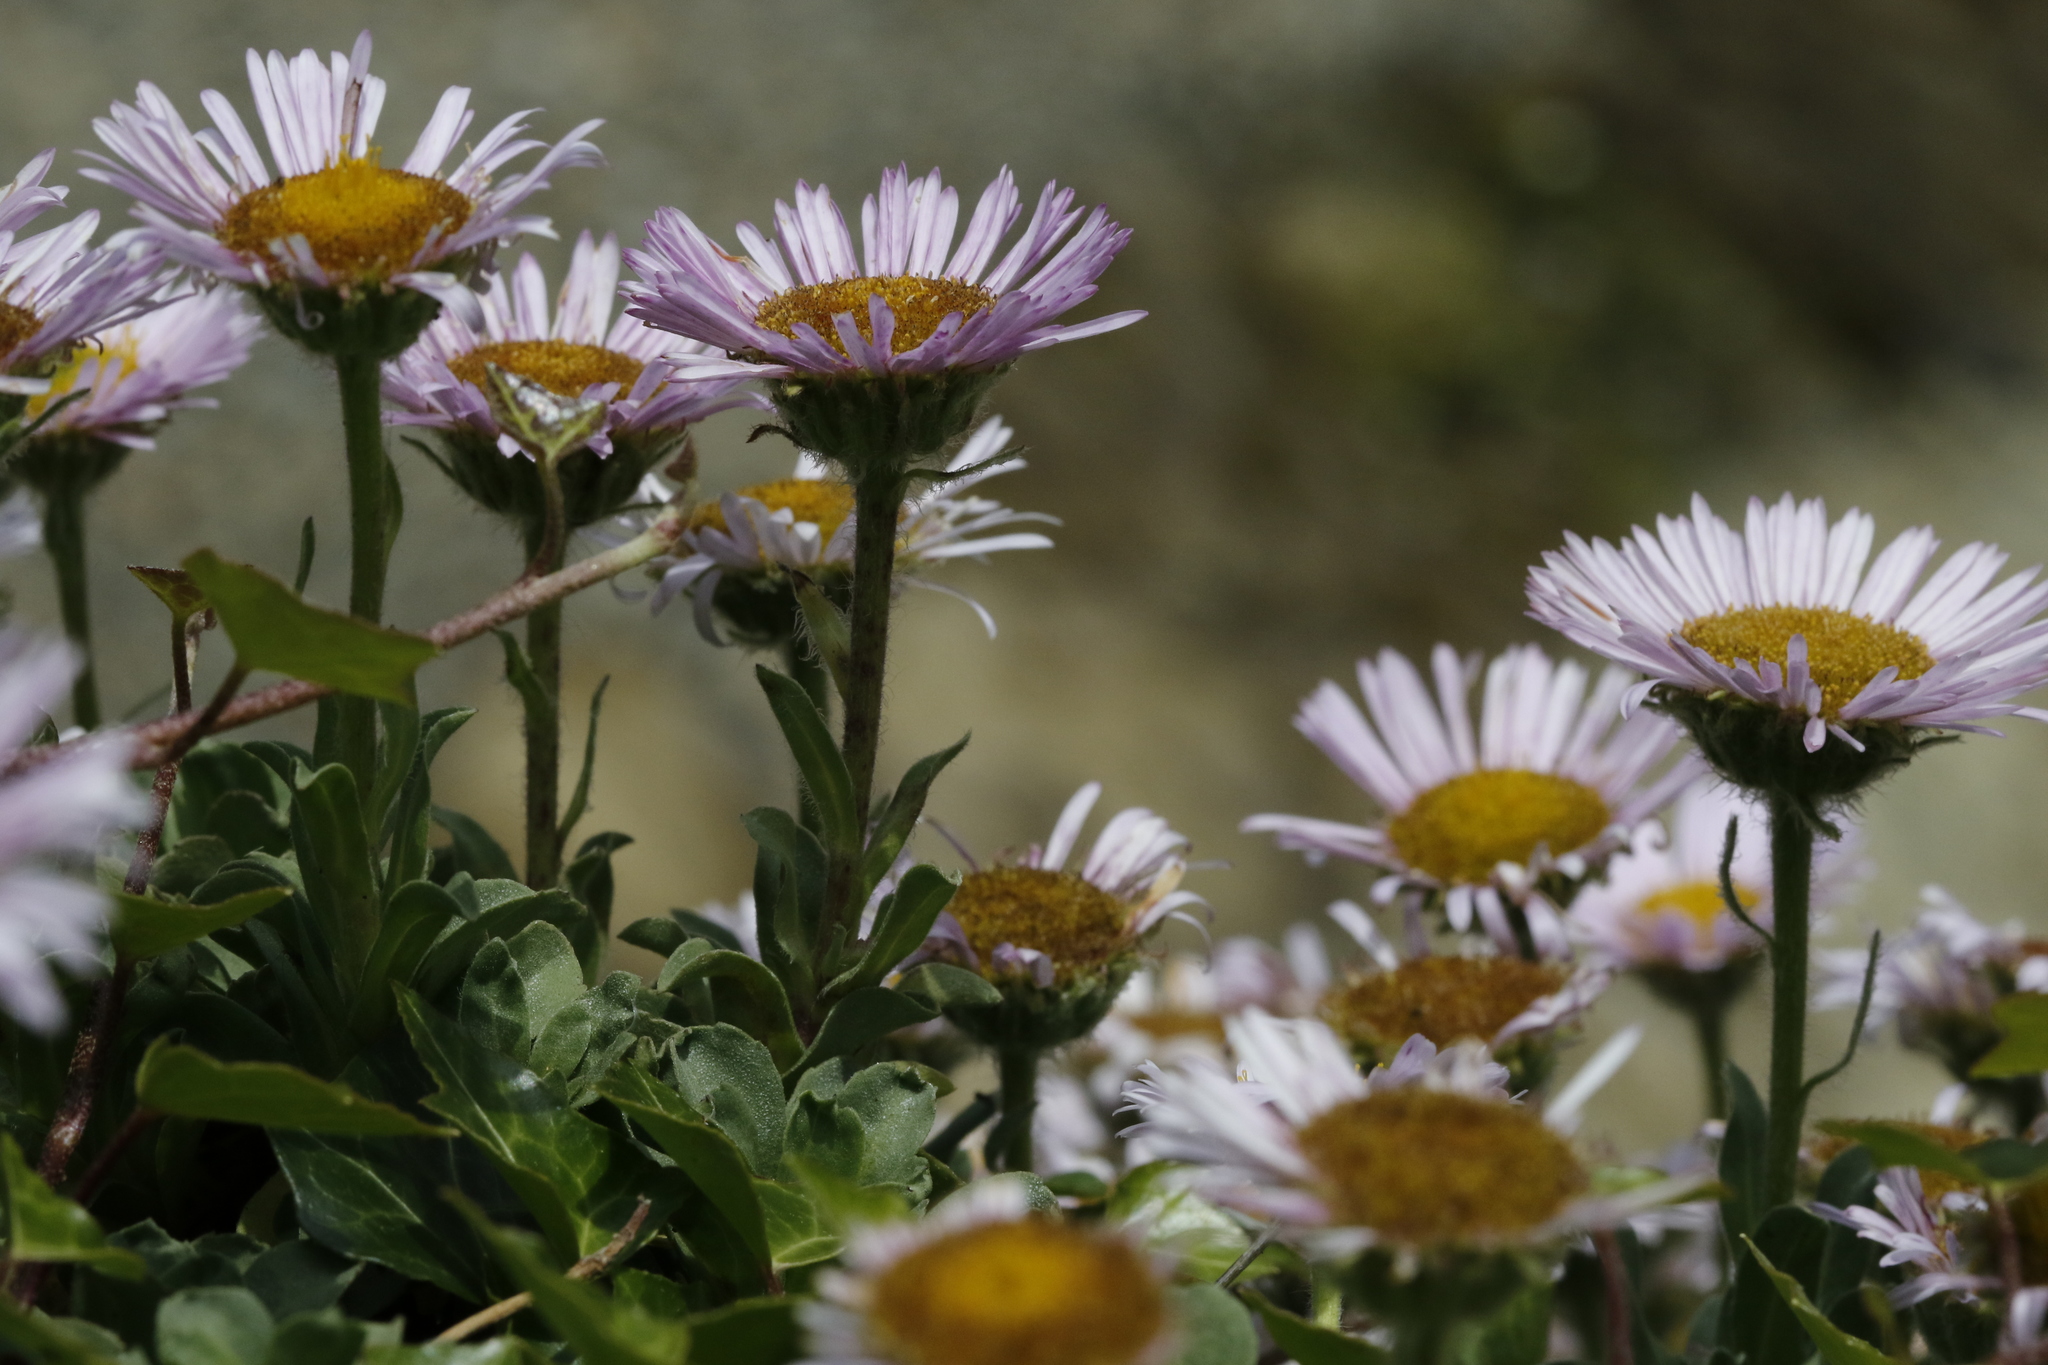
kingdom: Plantae
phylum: Tracheophyta
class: Magnoliopsida
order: Asterales
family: Asteraceae
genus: Erigeron
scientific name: Erigeron glaucus
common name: Seaside daisy
